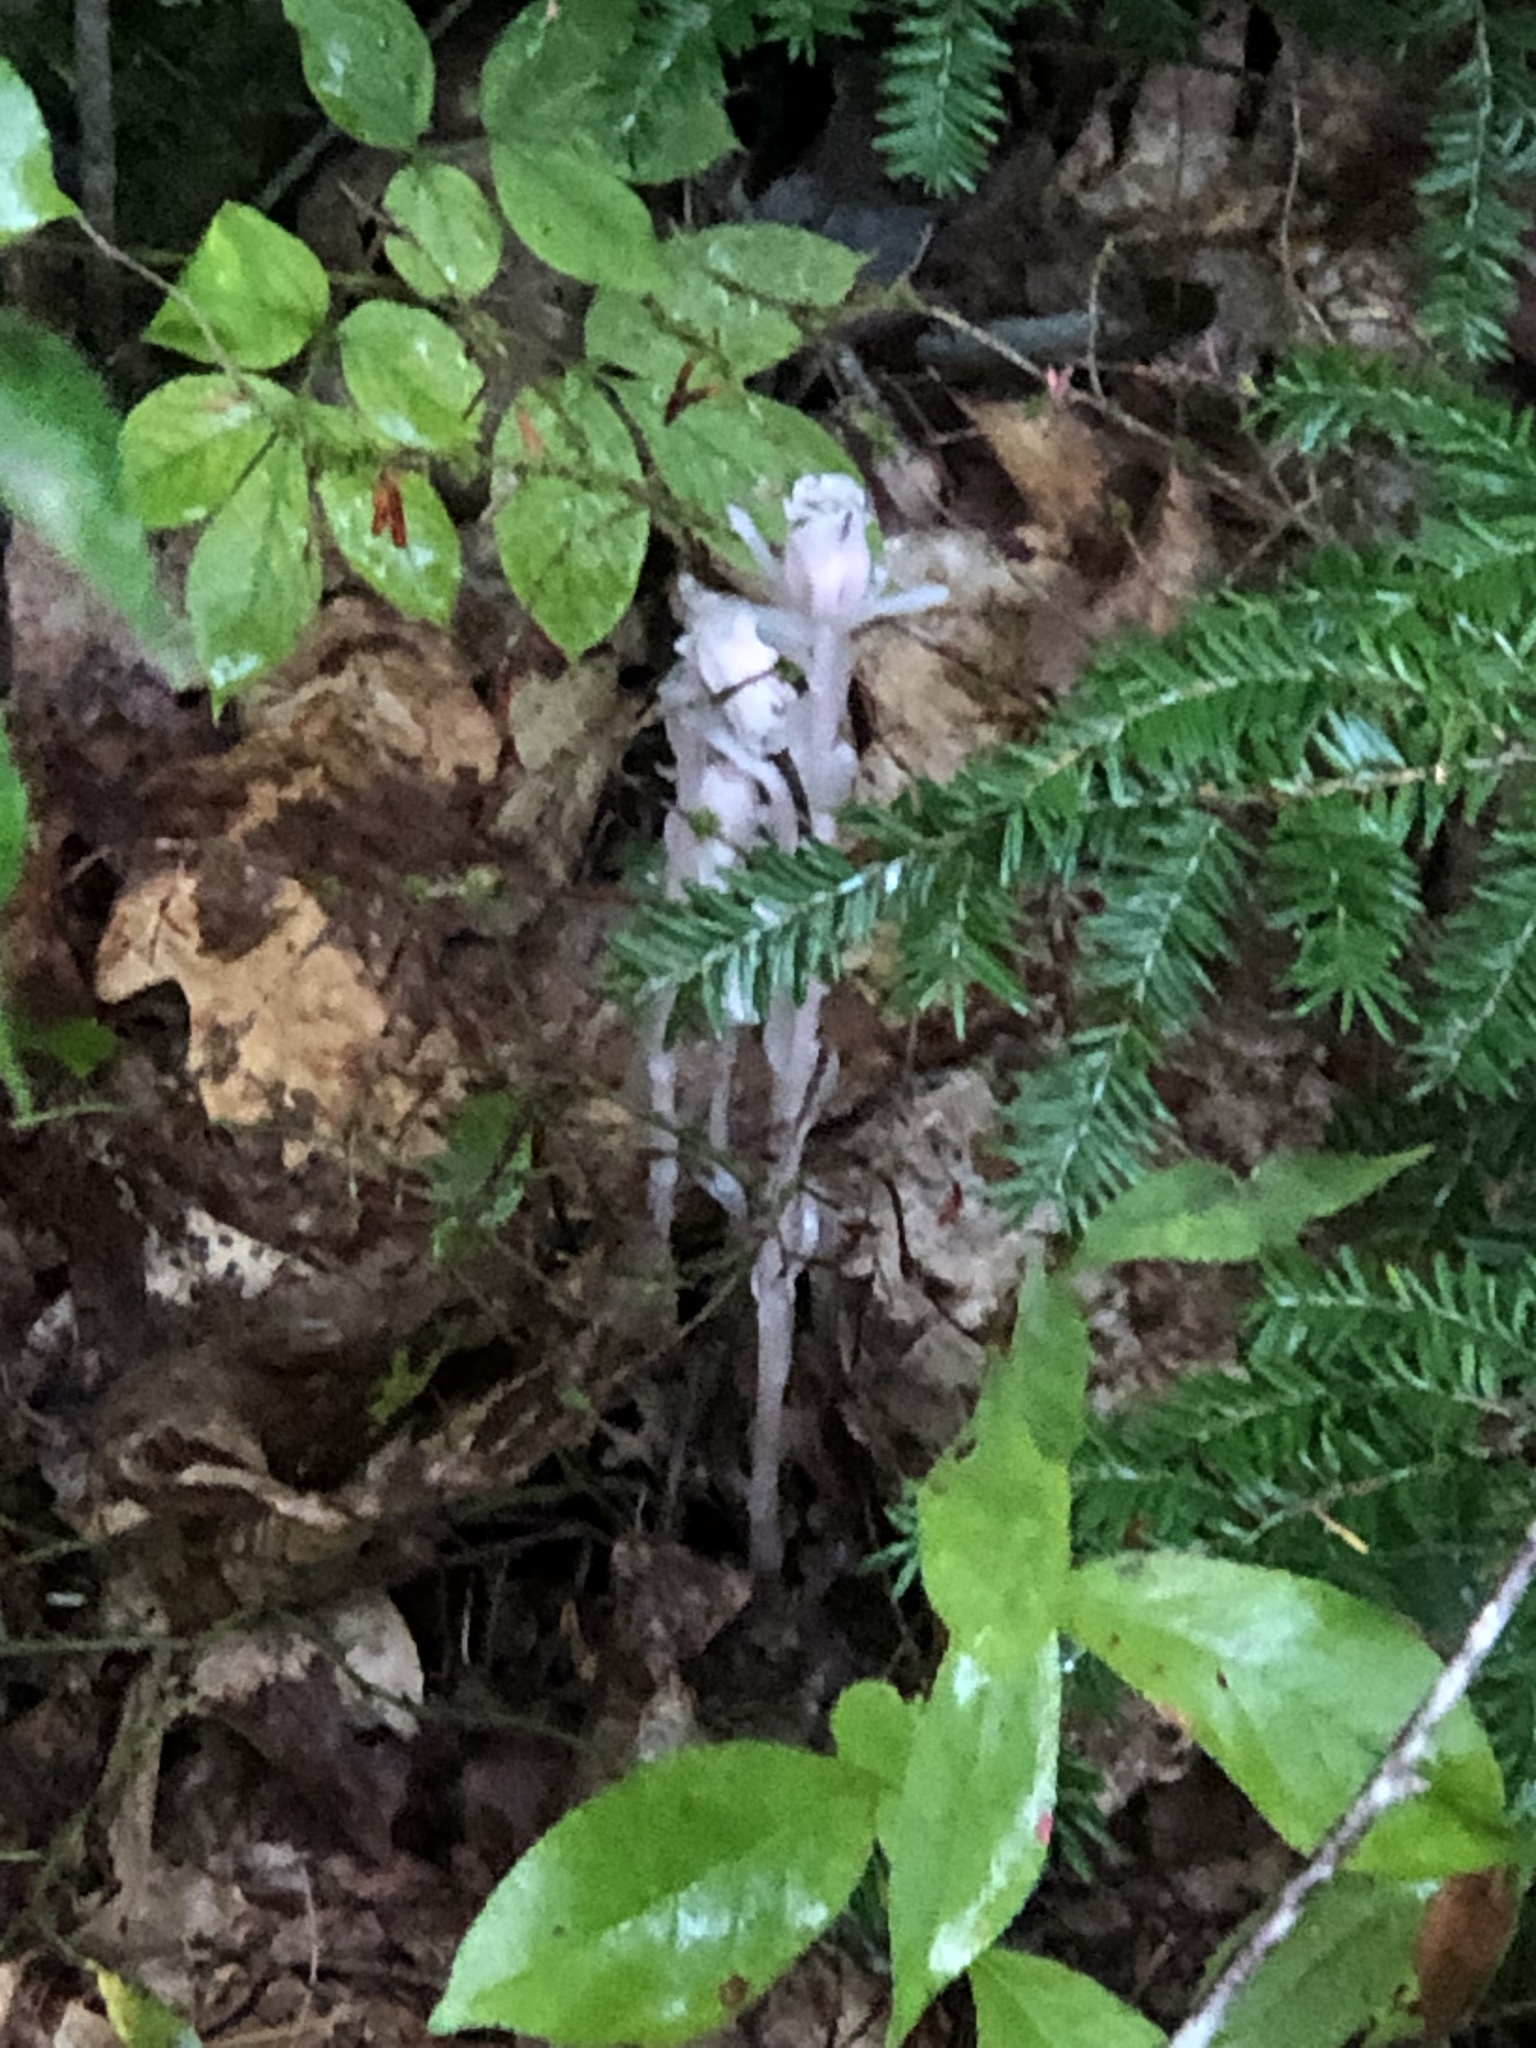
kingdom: Plantae
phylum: Tracheophyta
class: Magnoliopsida
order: Ericales
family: Ericaceae
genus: Monotropa
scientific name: Monotropa uniflora
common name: Convulsion root
